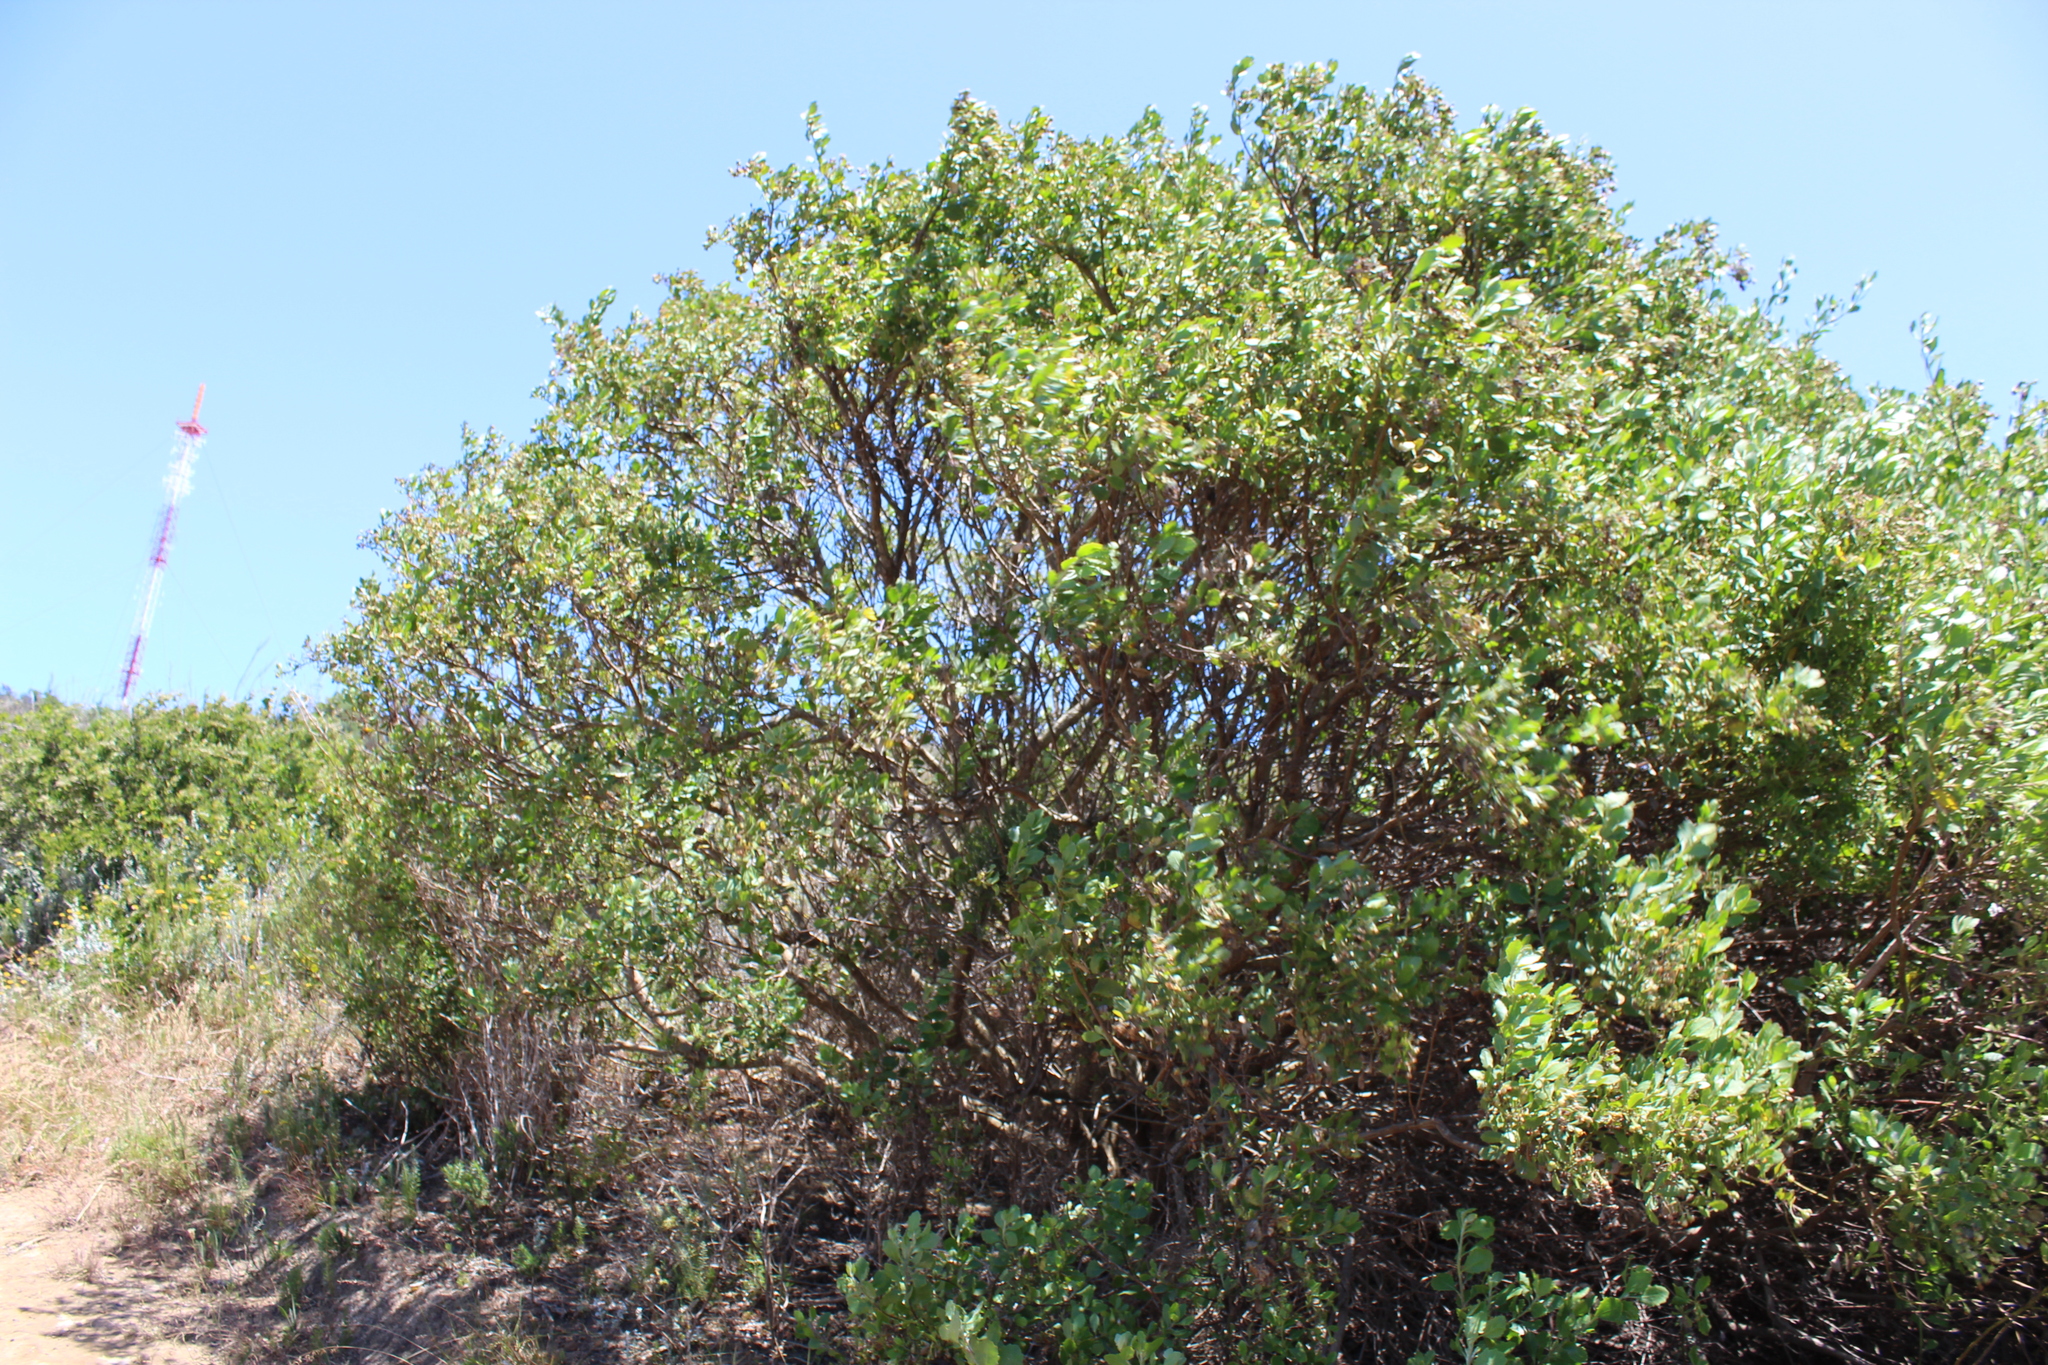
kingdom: Plantae
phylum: Tracheophyta
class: Magnoliopsida
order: Asterales
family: Asteraceae
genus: Osteospermum
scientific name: Osteospermum moniliferum
